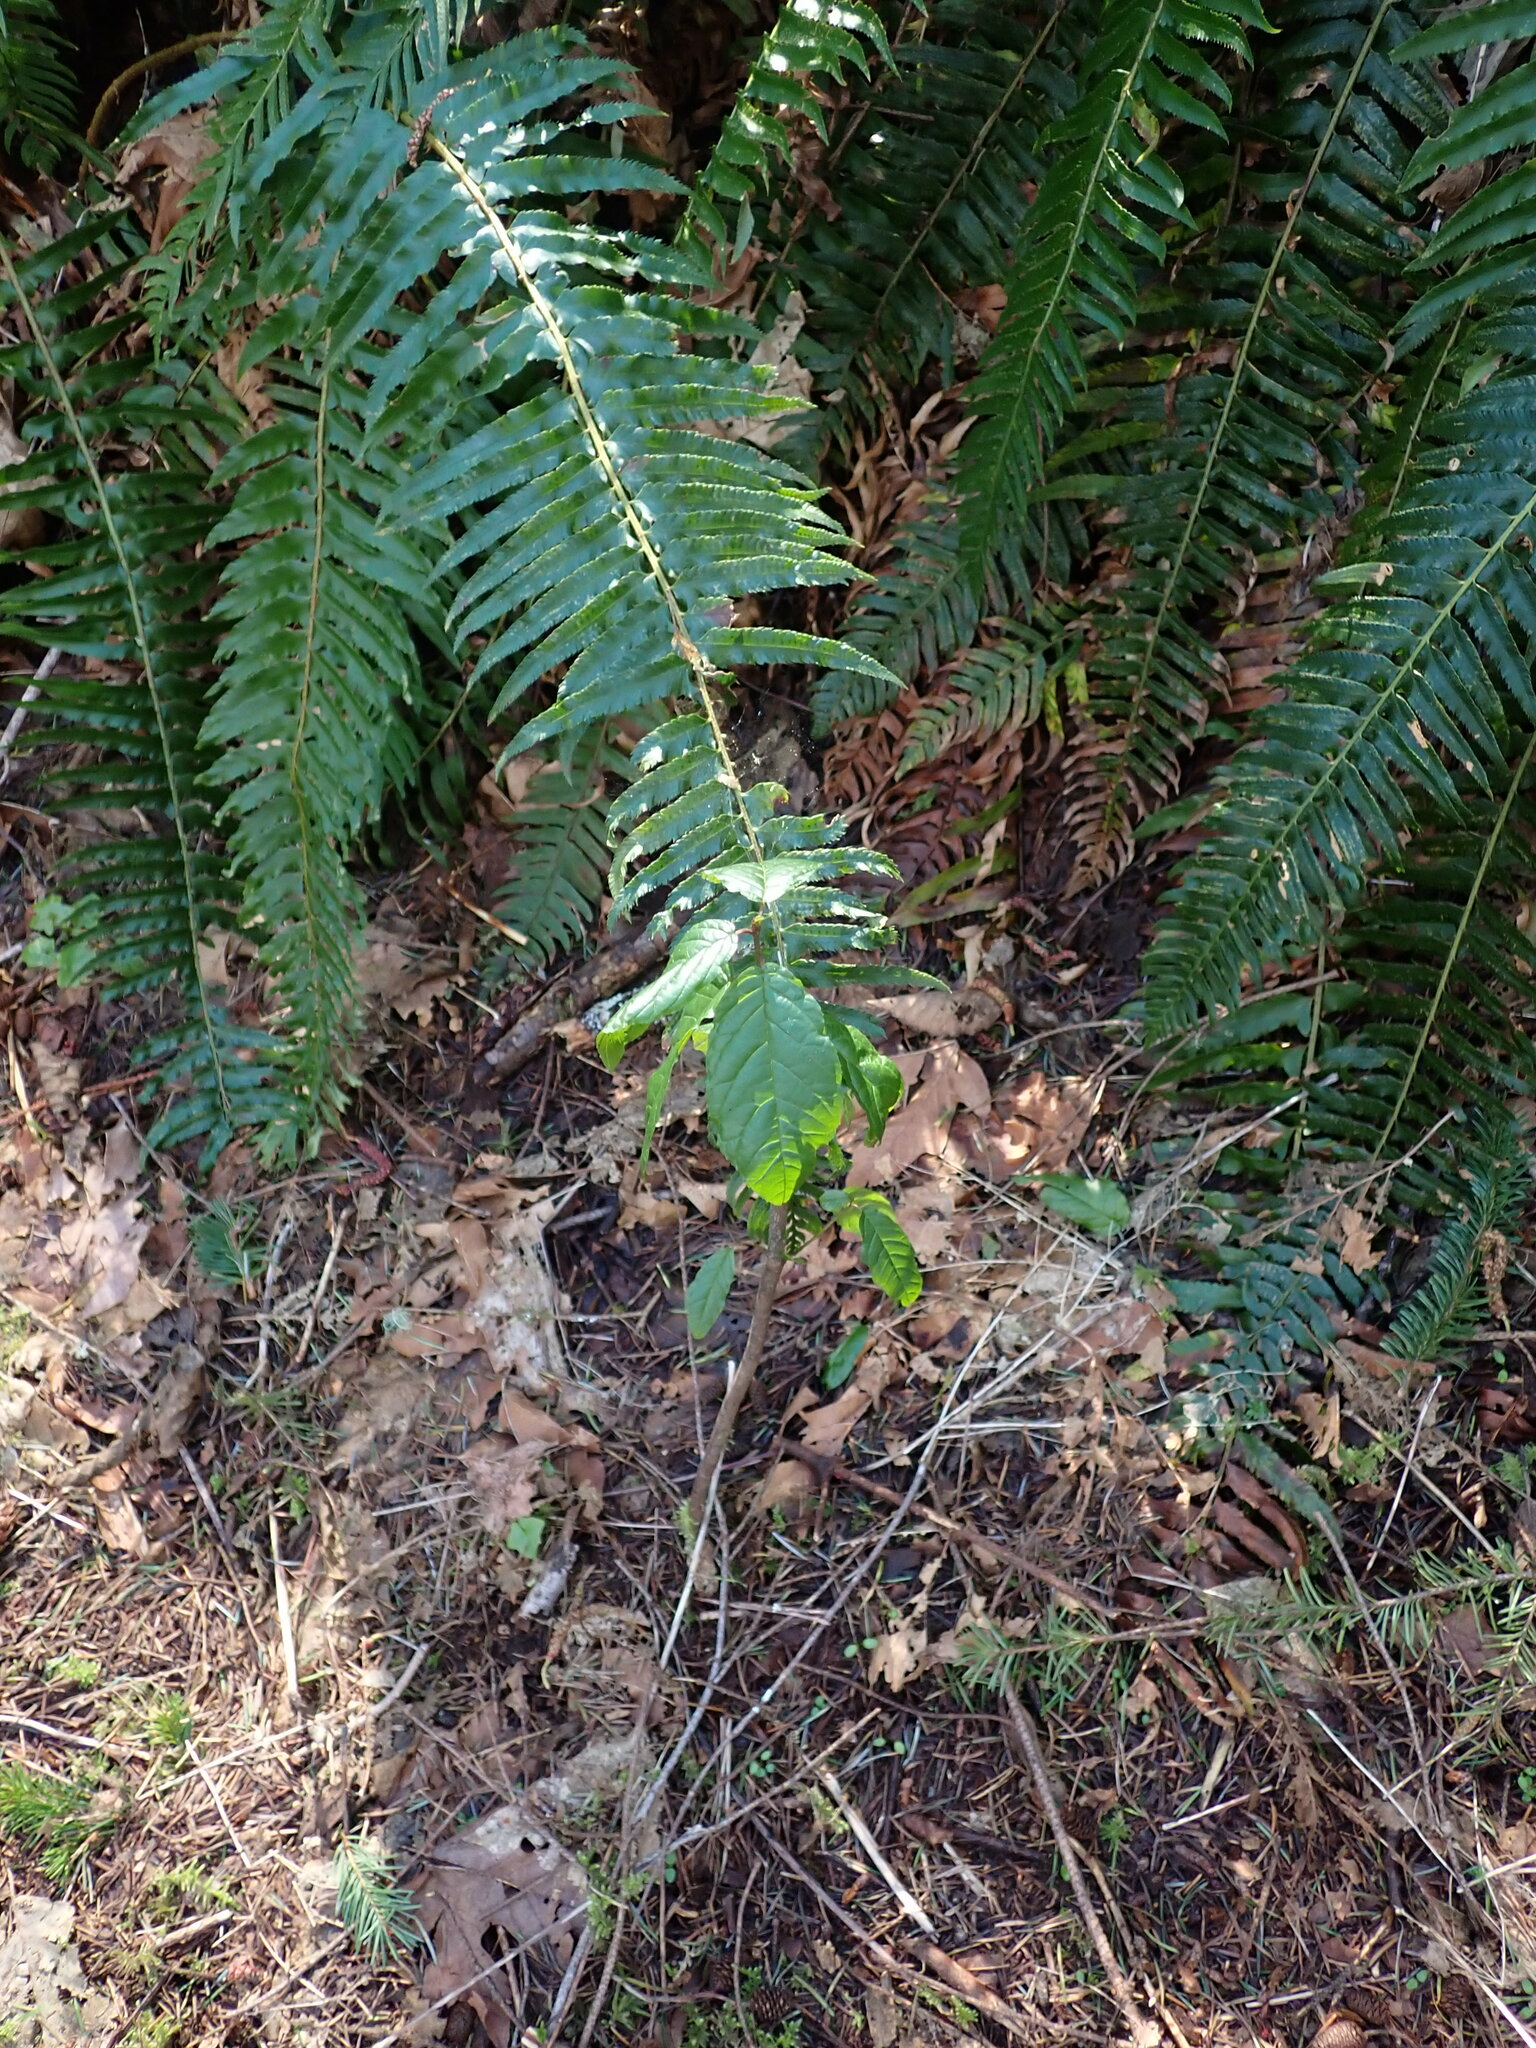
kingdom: Plantae
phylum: Tracheophyta
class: Magnoliopsida
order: Rosales
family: Rhamnaceae
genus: Frangula
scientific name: Frangula purshiana
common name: Cascara buckthorn
